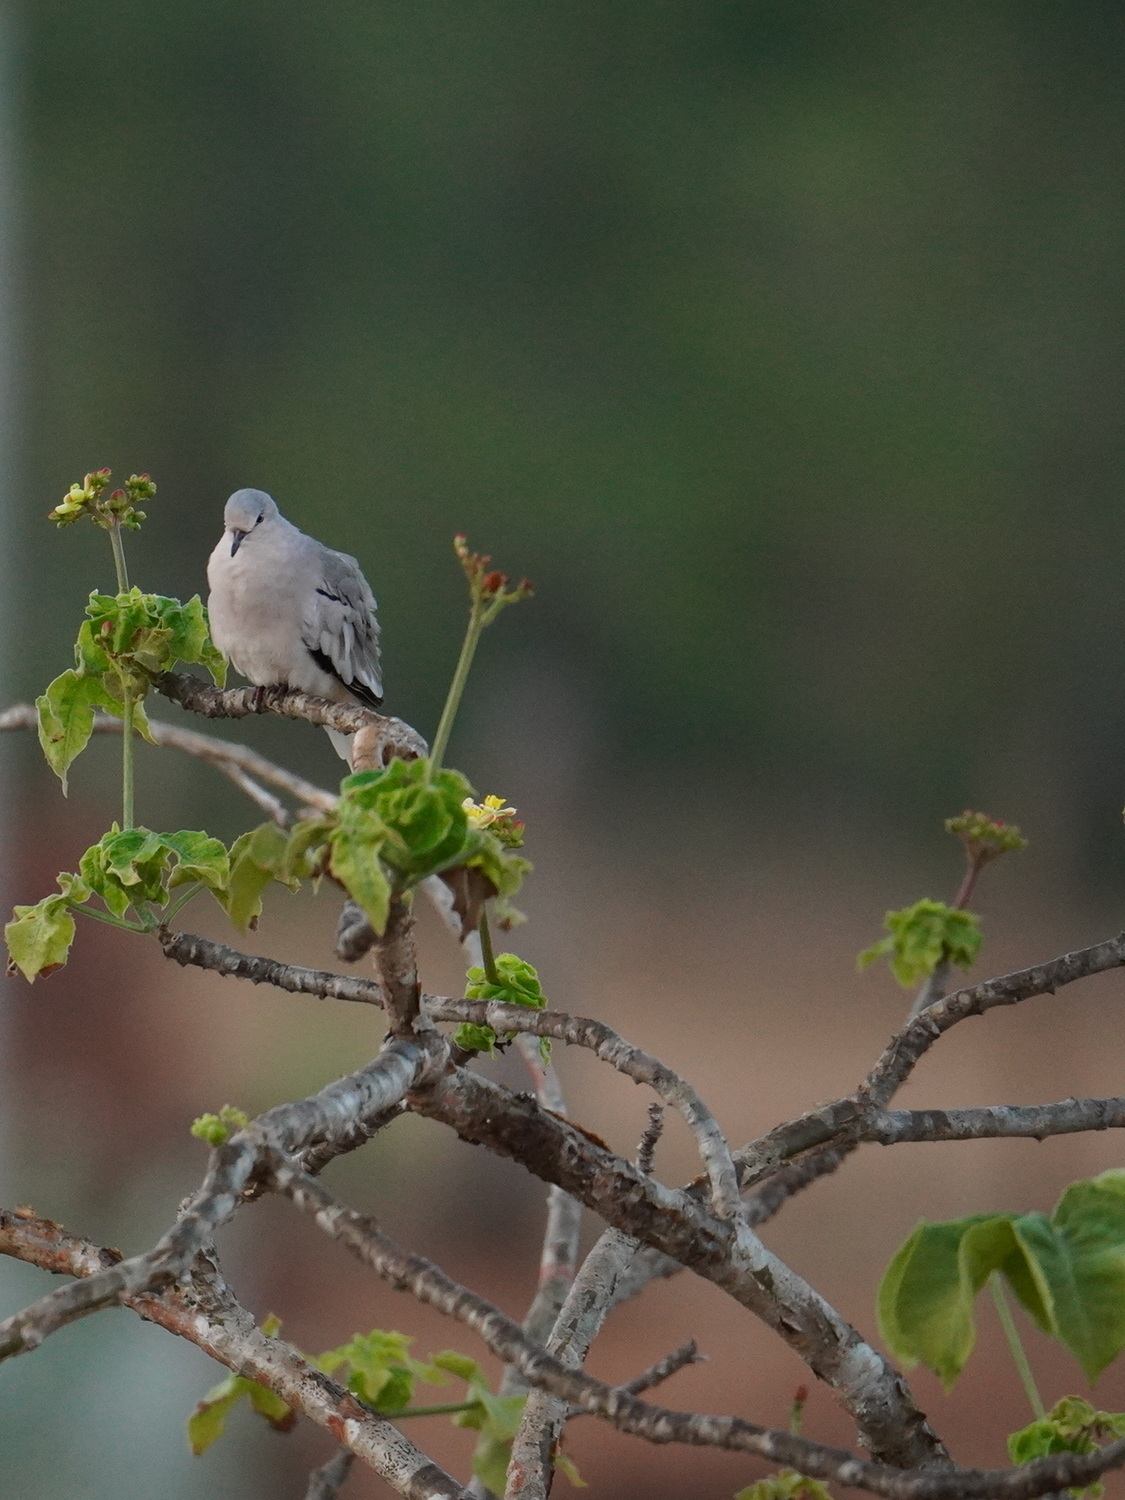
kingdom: Animalia
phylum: Chordata
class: Aves
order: Columbiformes
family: Columbidae
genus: Columbina
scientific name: Columbina picui
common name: Picui ground dove
